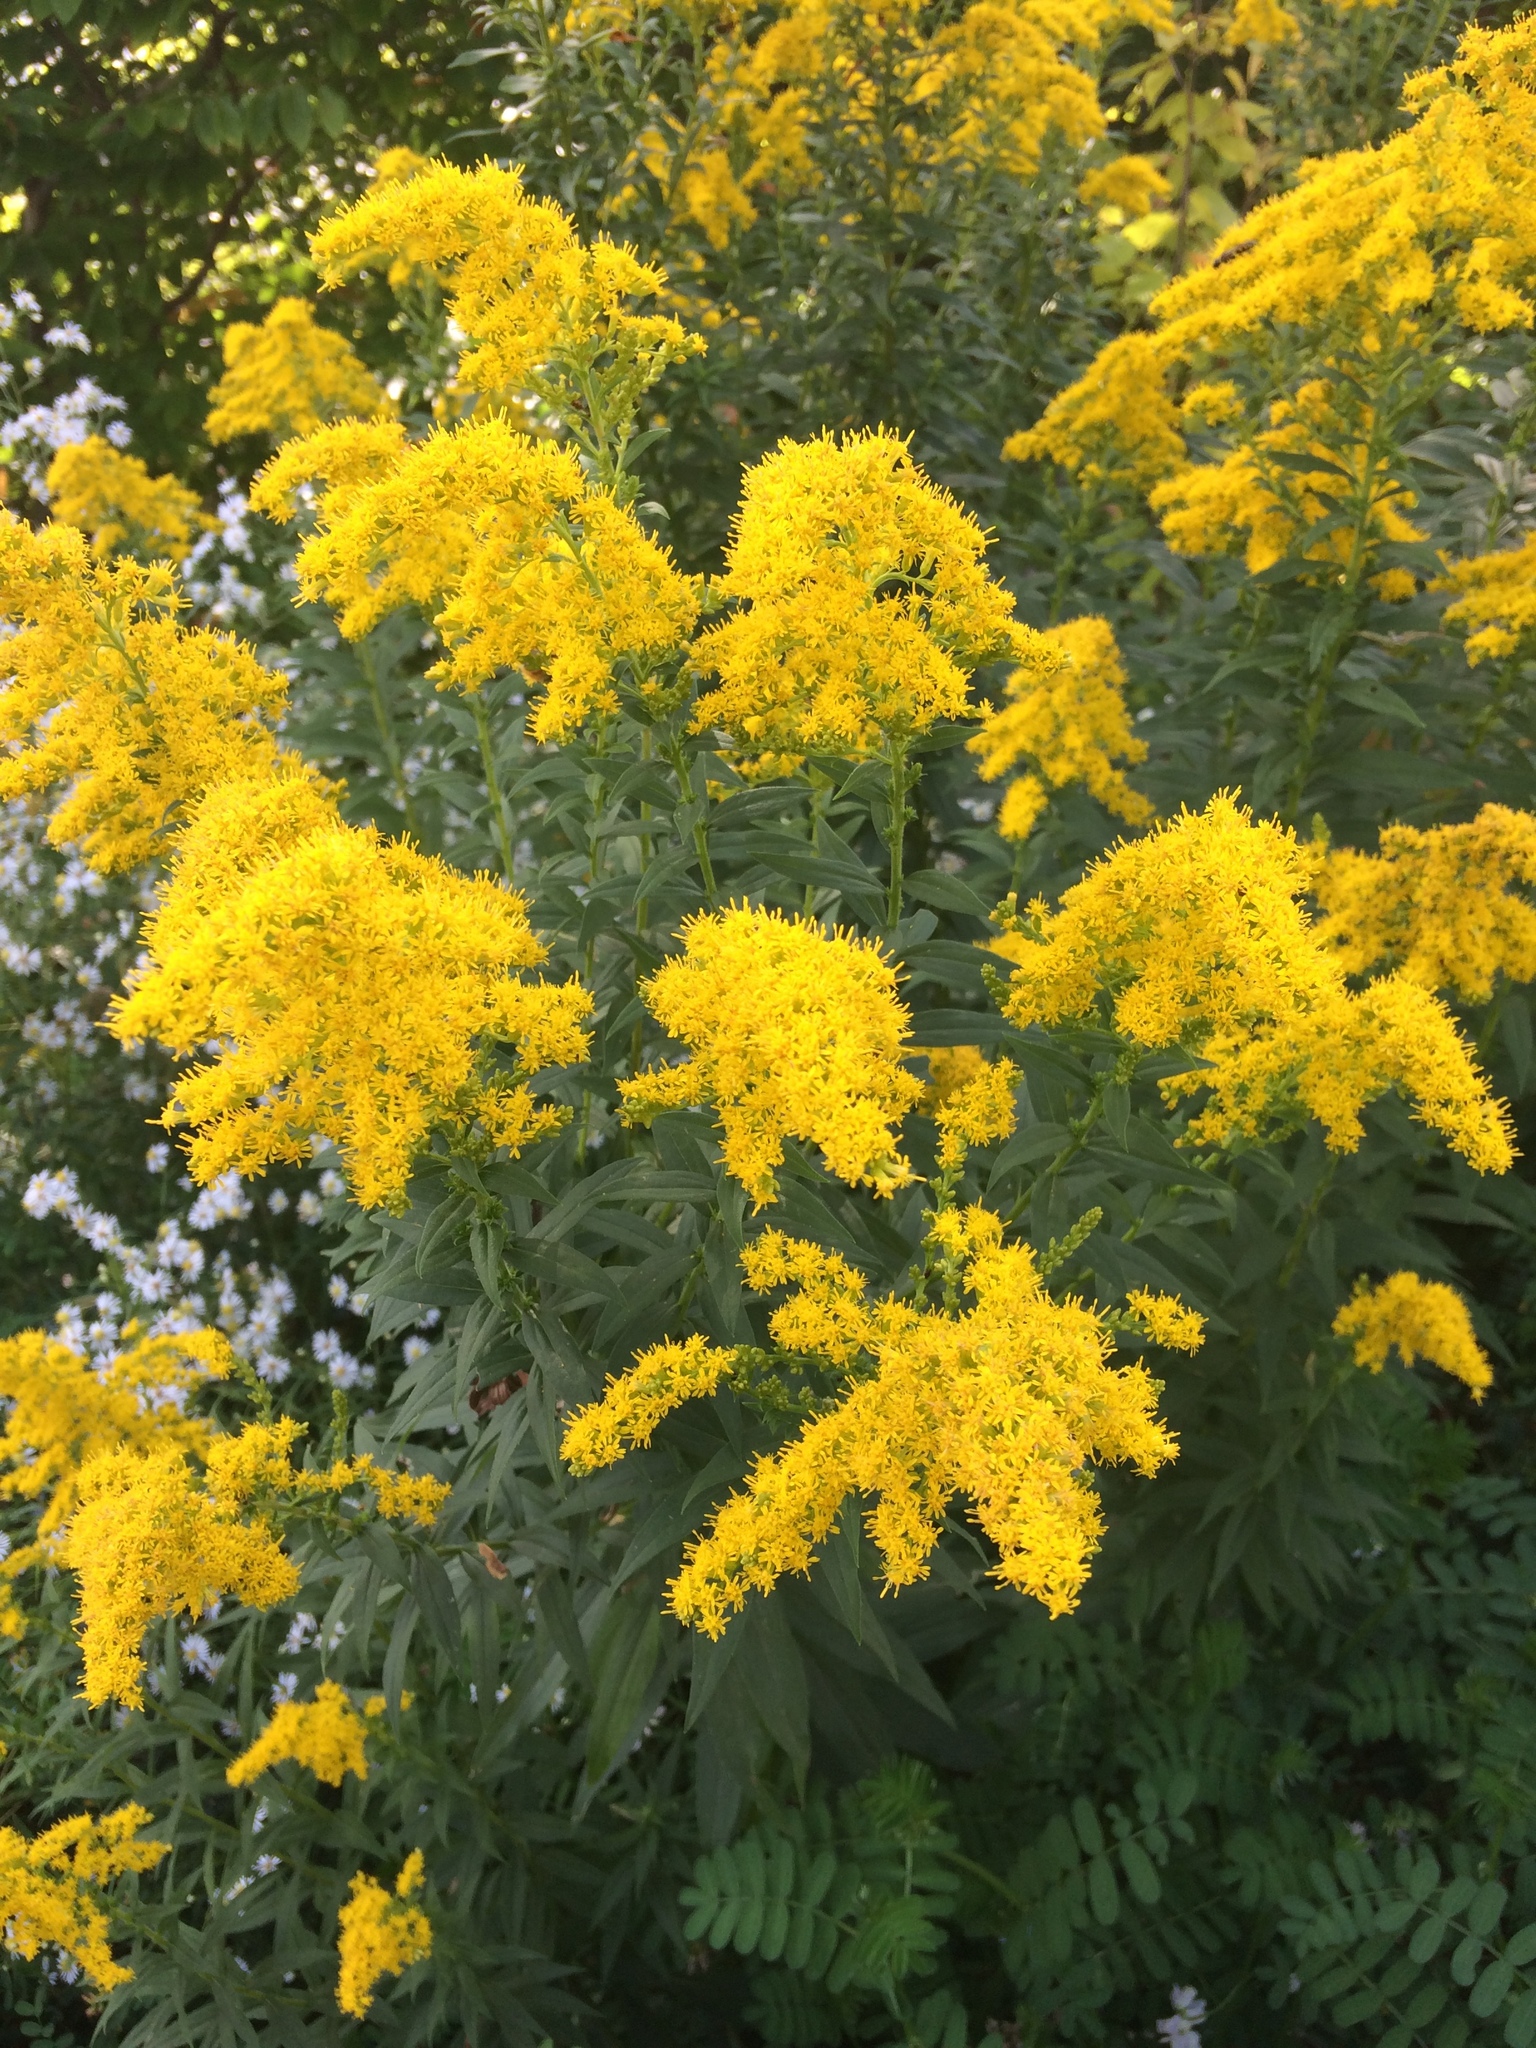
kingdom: Plantae
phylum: Tracheophyta
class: Magnoliopsida
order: Asterales
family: Asteraceae
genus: Solidago
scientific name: Solidago canadensis
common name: Canada goldenrod
